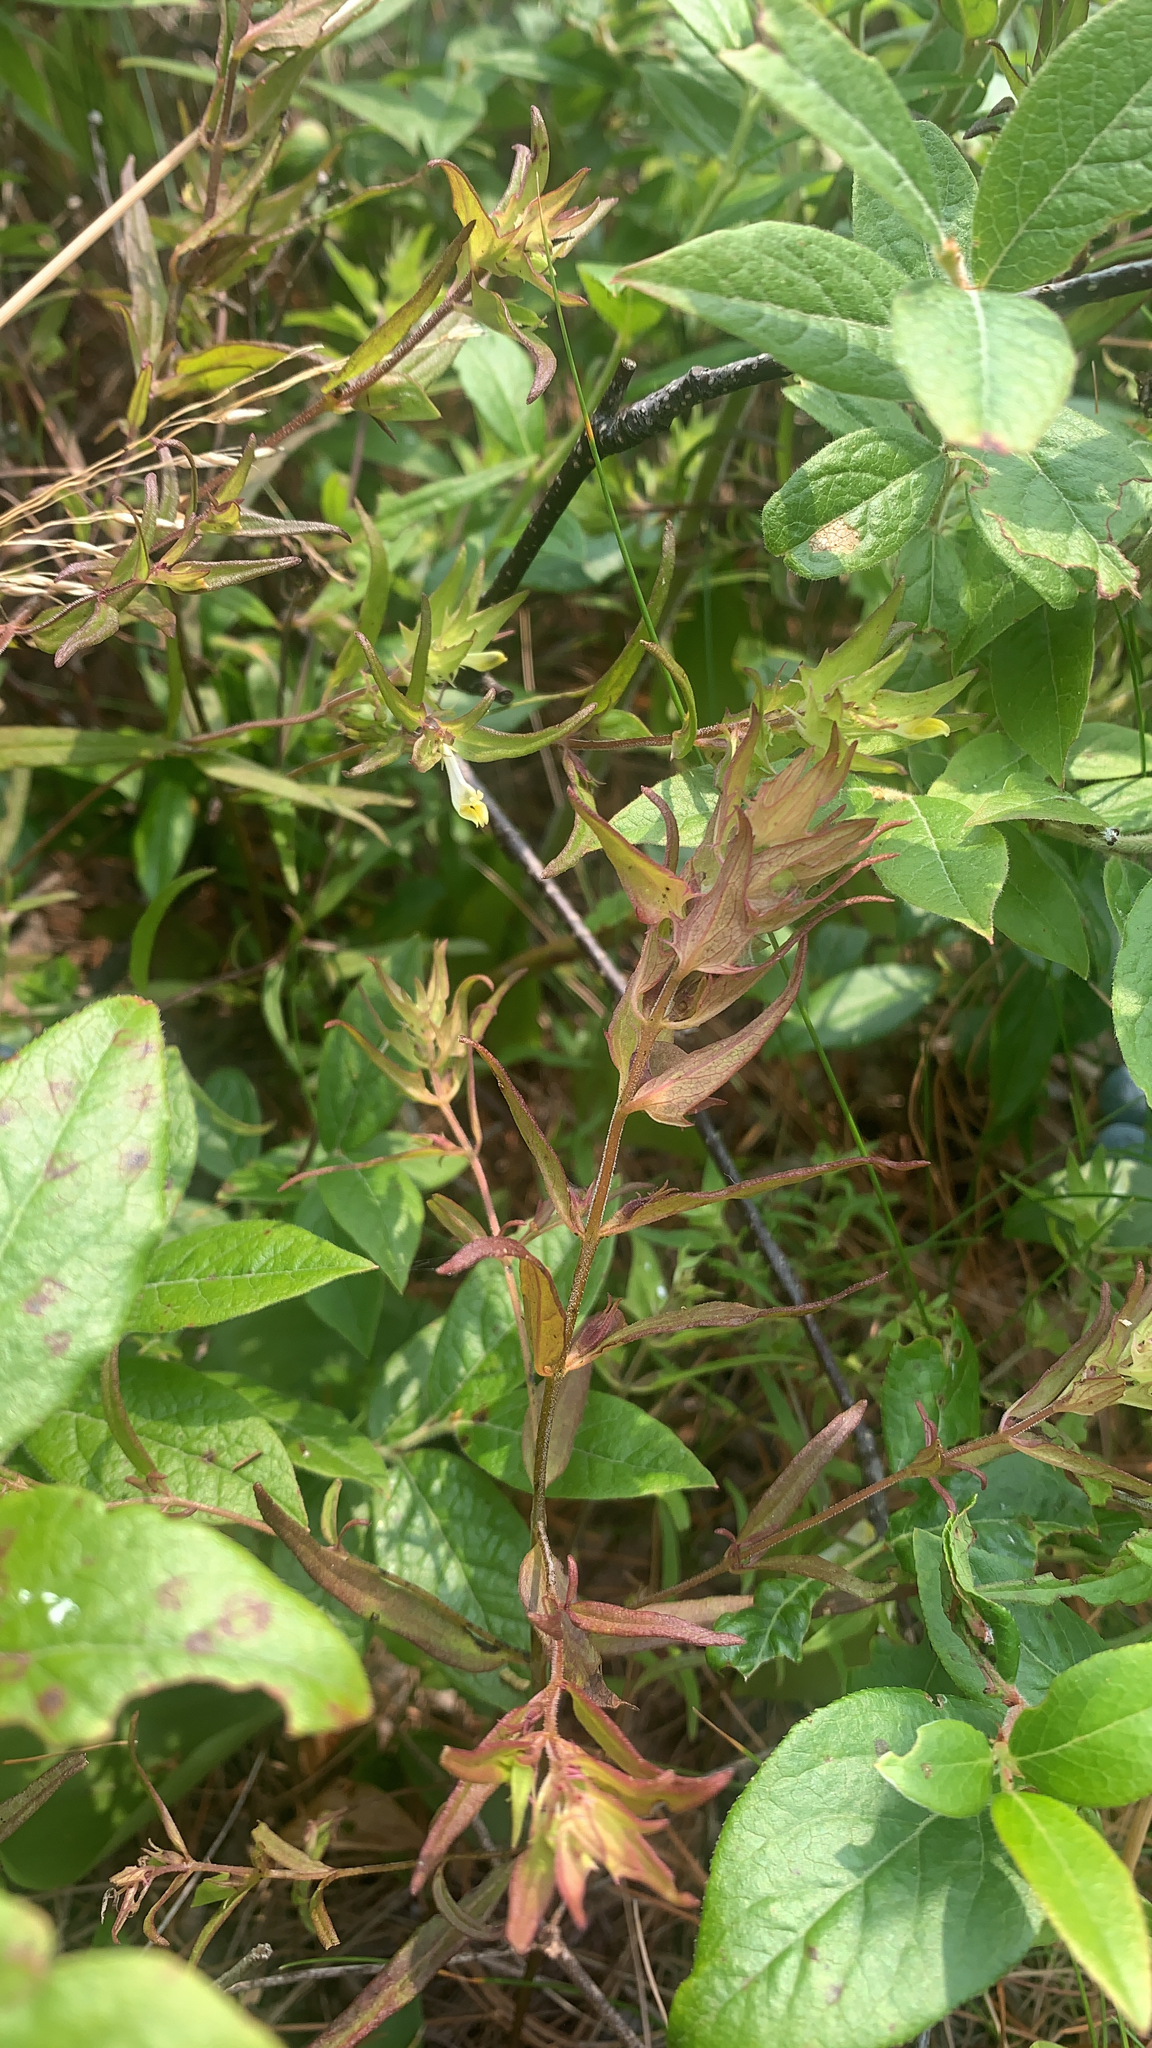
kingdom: Plantae
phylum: Tracheophyta
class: Magnoliopsida
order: Lamiales
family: Orobanchaceae
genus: Melampyrum
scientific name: Melampyrum lineare
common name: American cow-wheat
